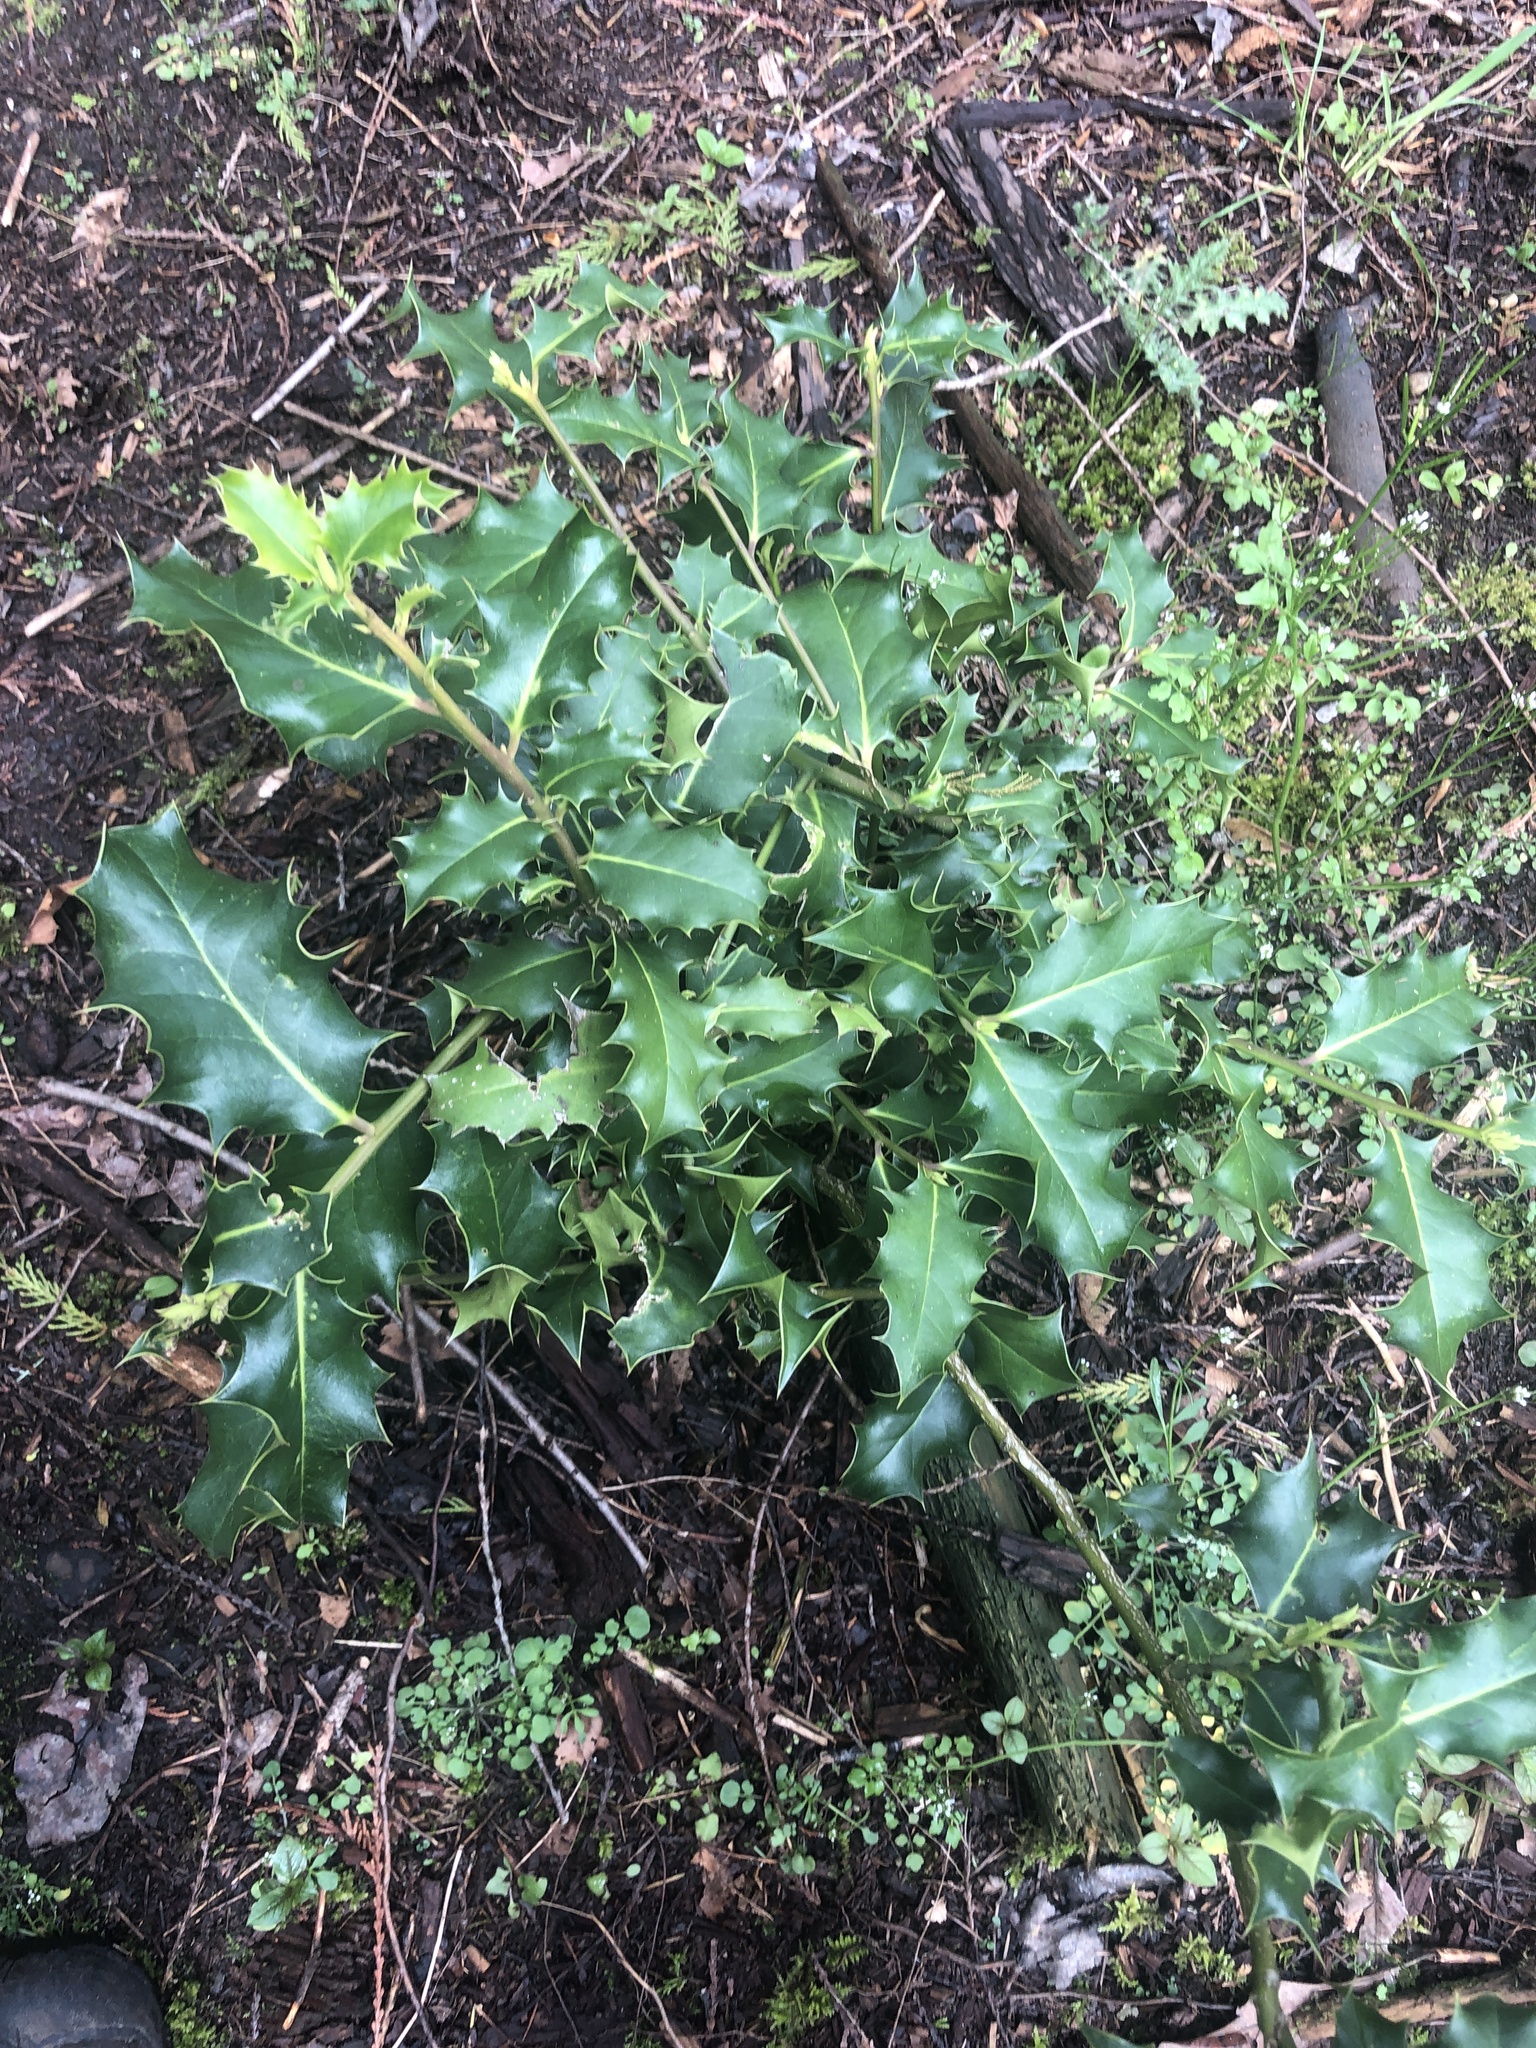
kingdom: Plantae
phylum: Tracheophyta
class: Magnoliopsida
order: Aquifoliales
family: Aquifoliaceae
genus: Ilex
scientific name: Ilex aquifolium
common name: English holly
